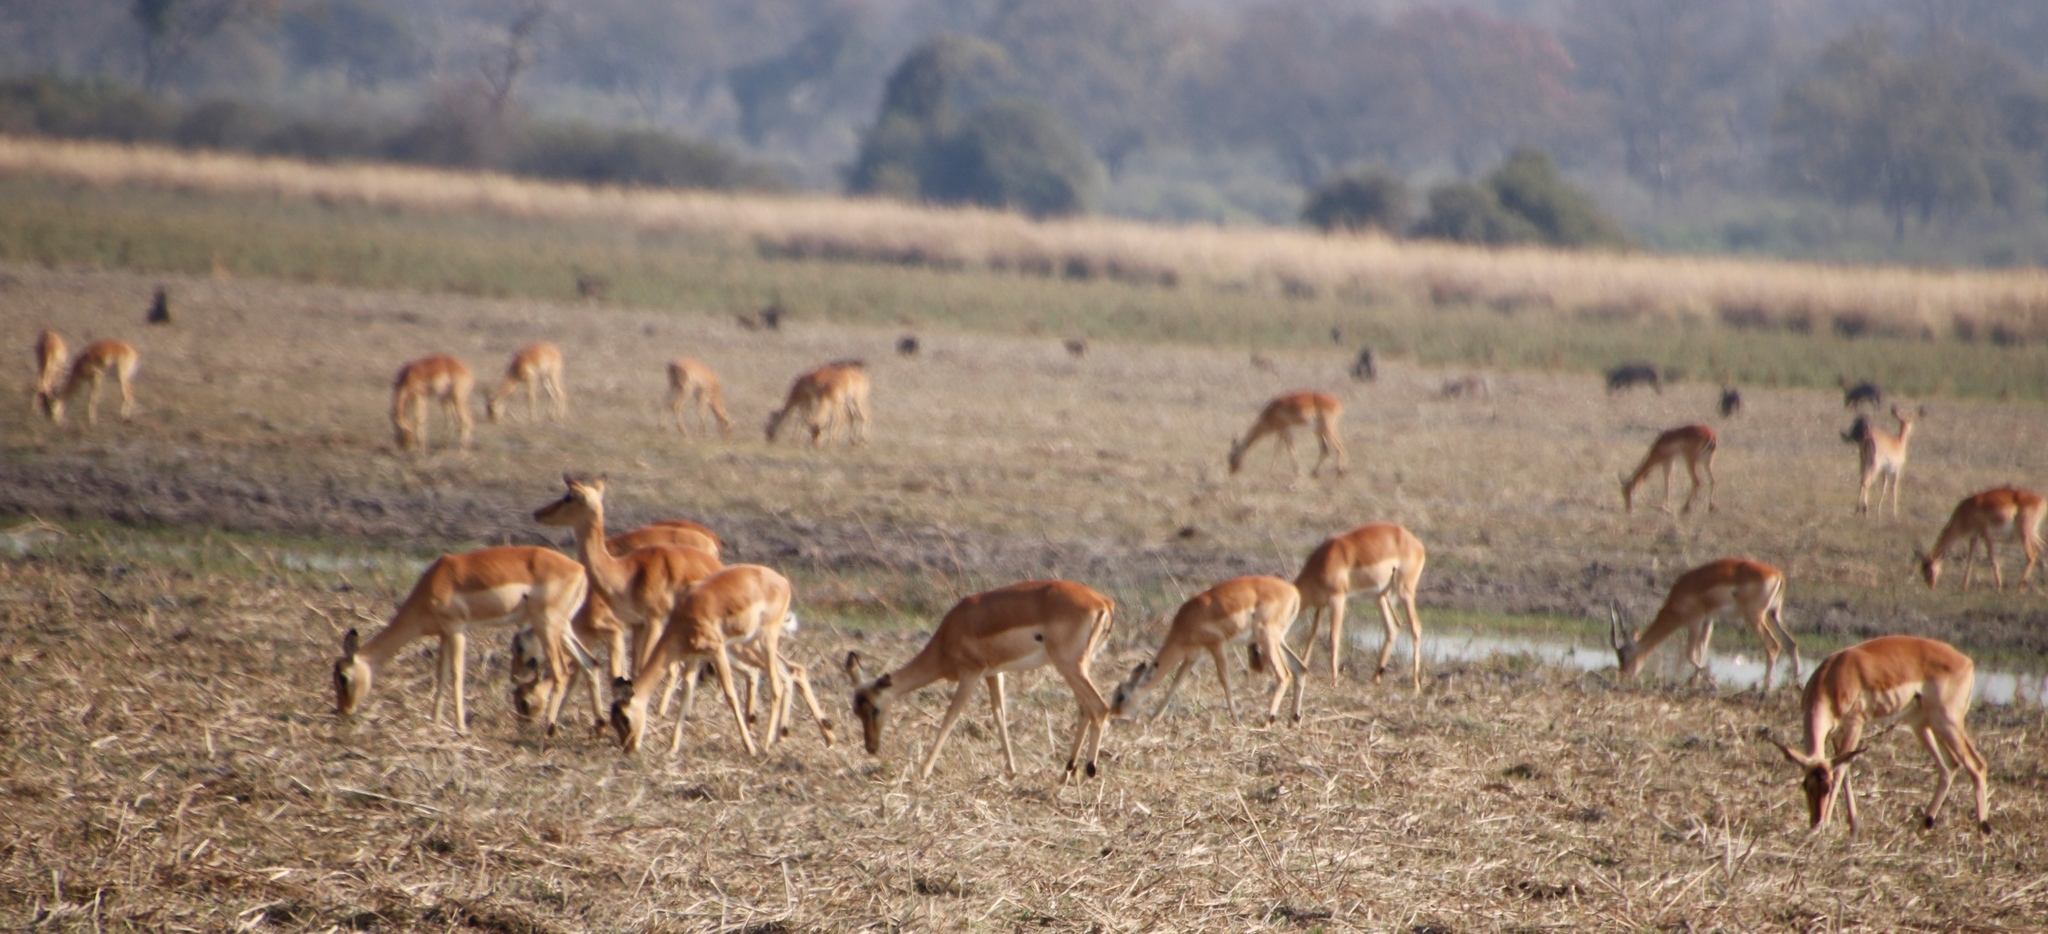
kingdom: Animalia
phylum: Chordata
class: Mammalia
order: Artiodactyla
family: Bovidae
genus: Aepyceros
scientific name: Aepyceros melampus
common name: Impala
